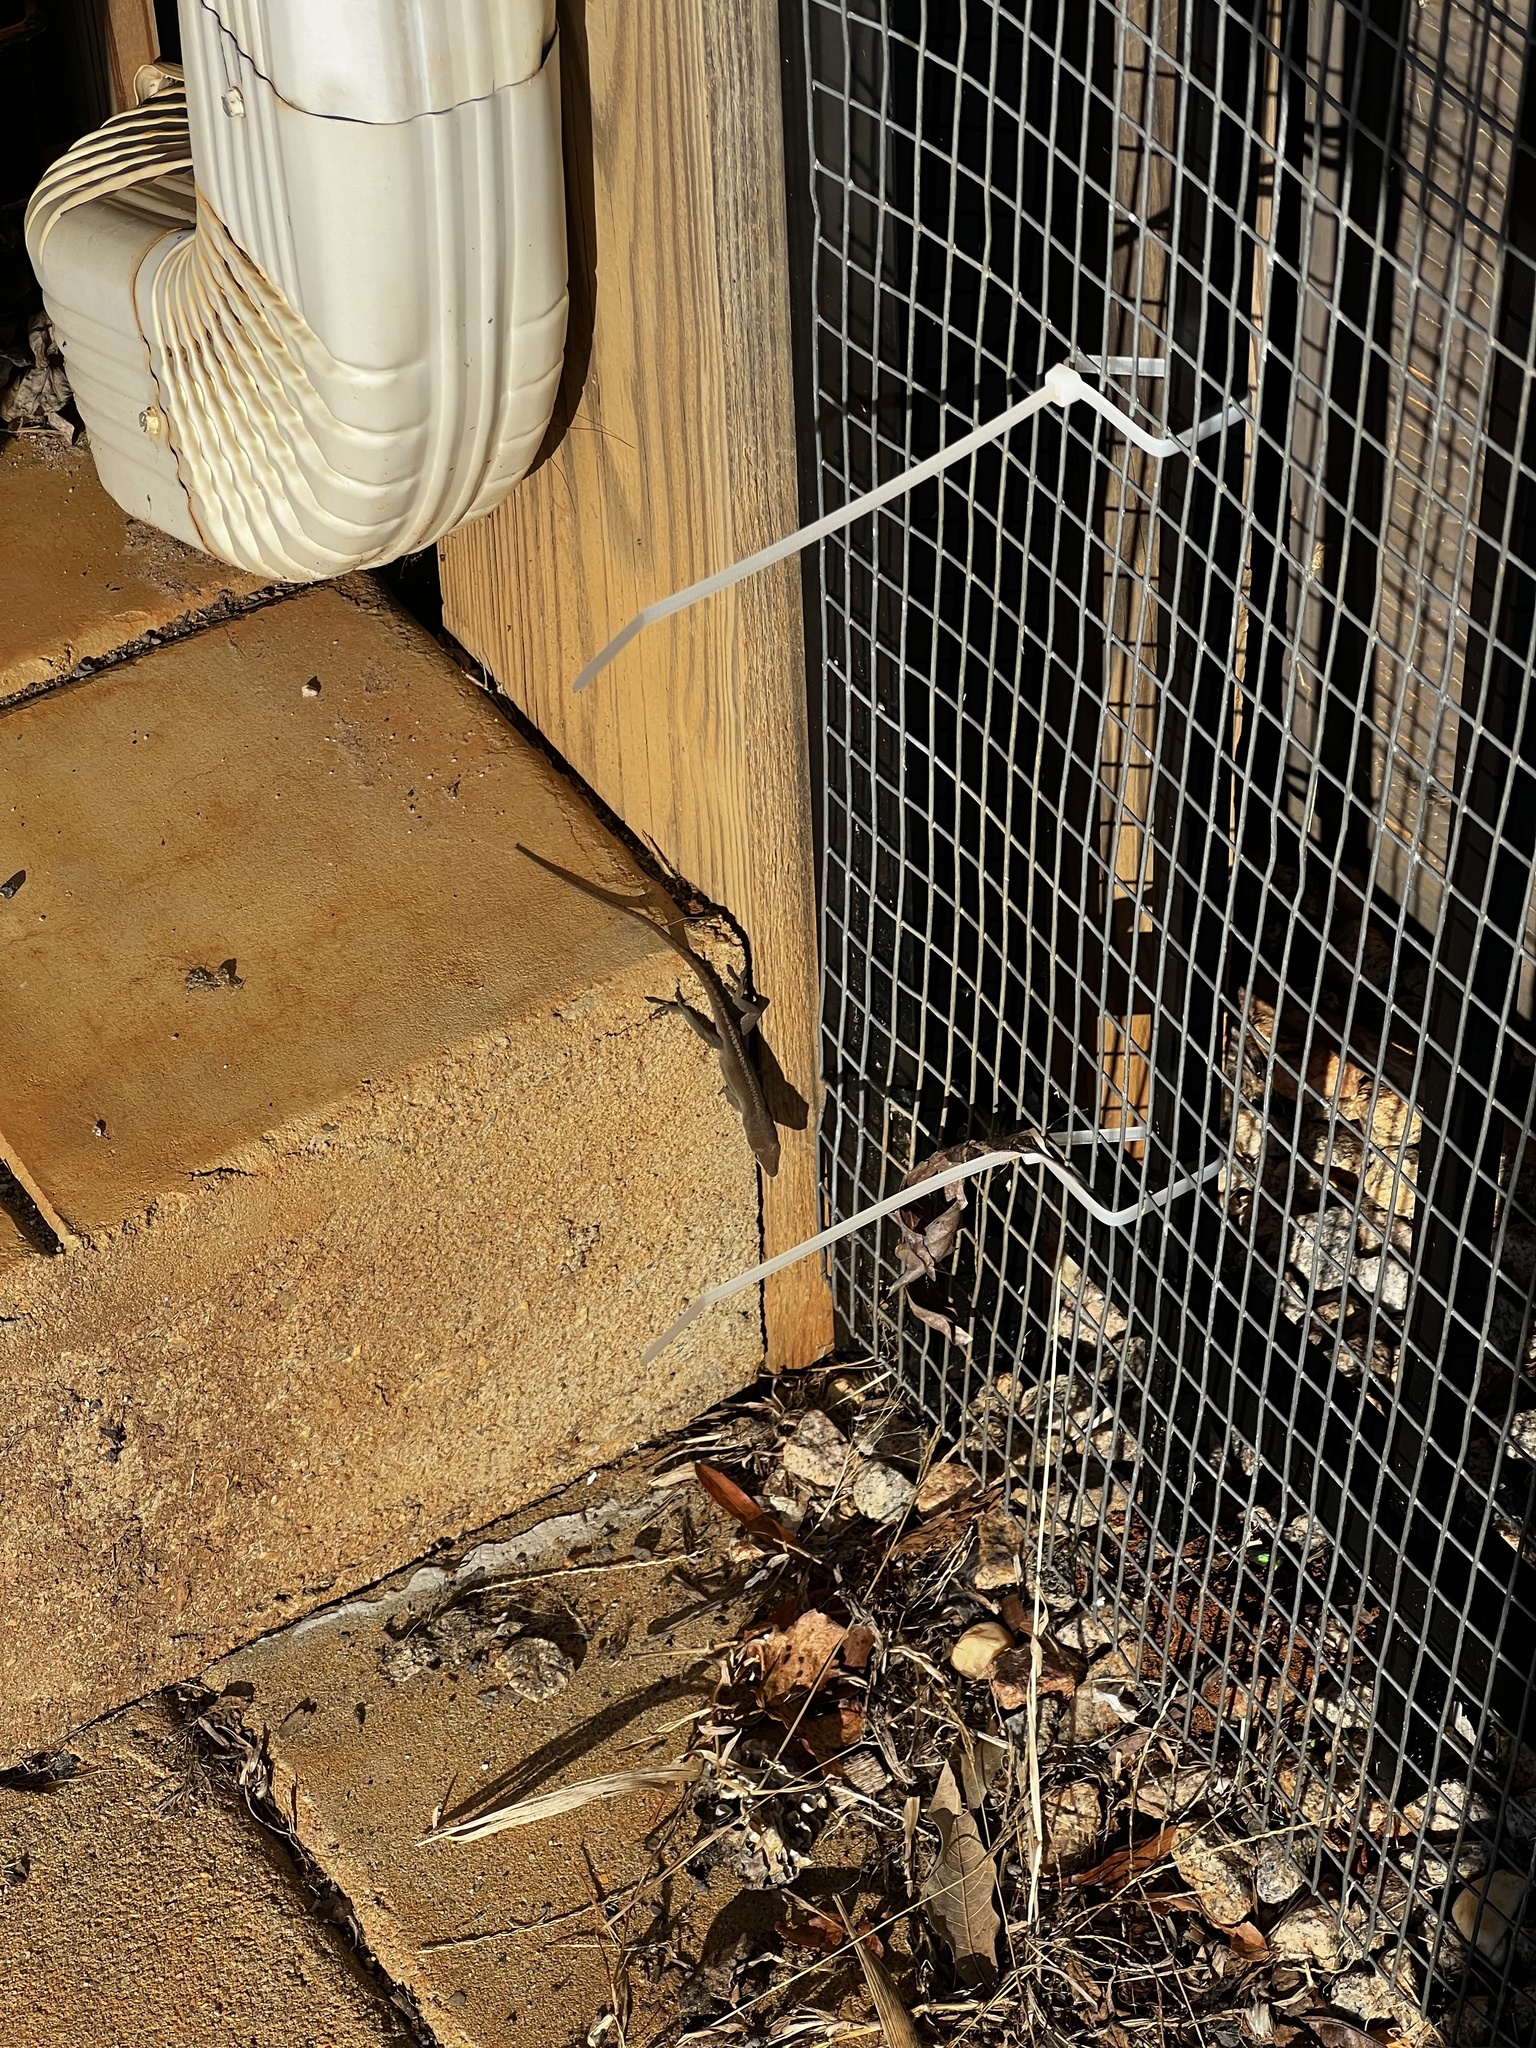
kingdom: Animalia
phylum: Chordata
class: Squamata
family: Dactyloidae
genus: Anolis
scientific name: Anolis carolinensis
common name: Green anole
